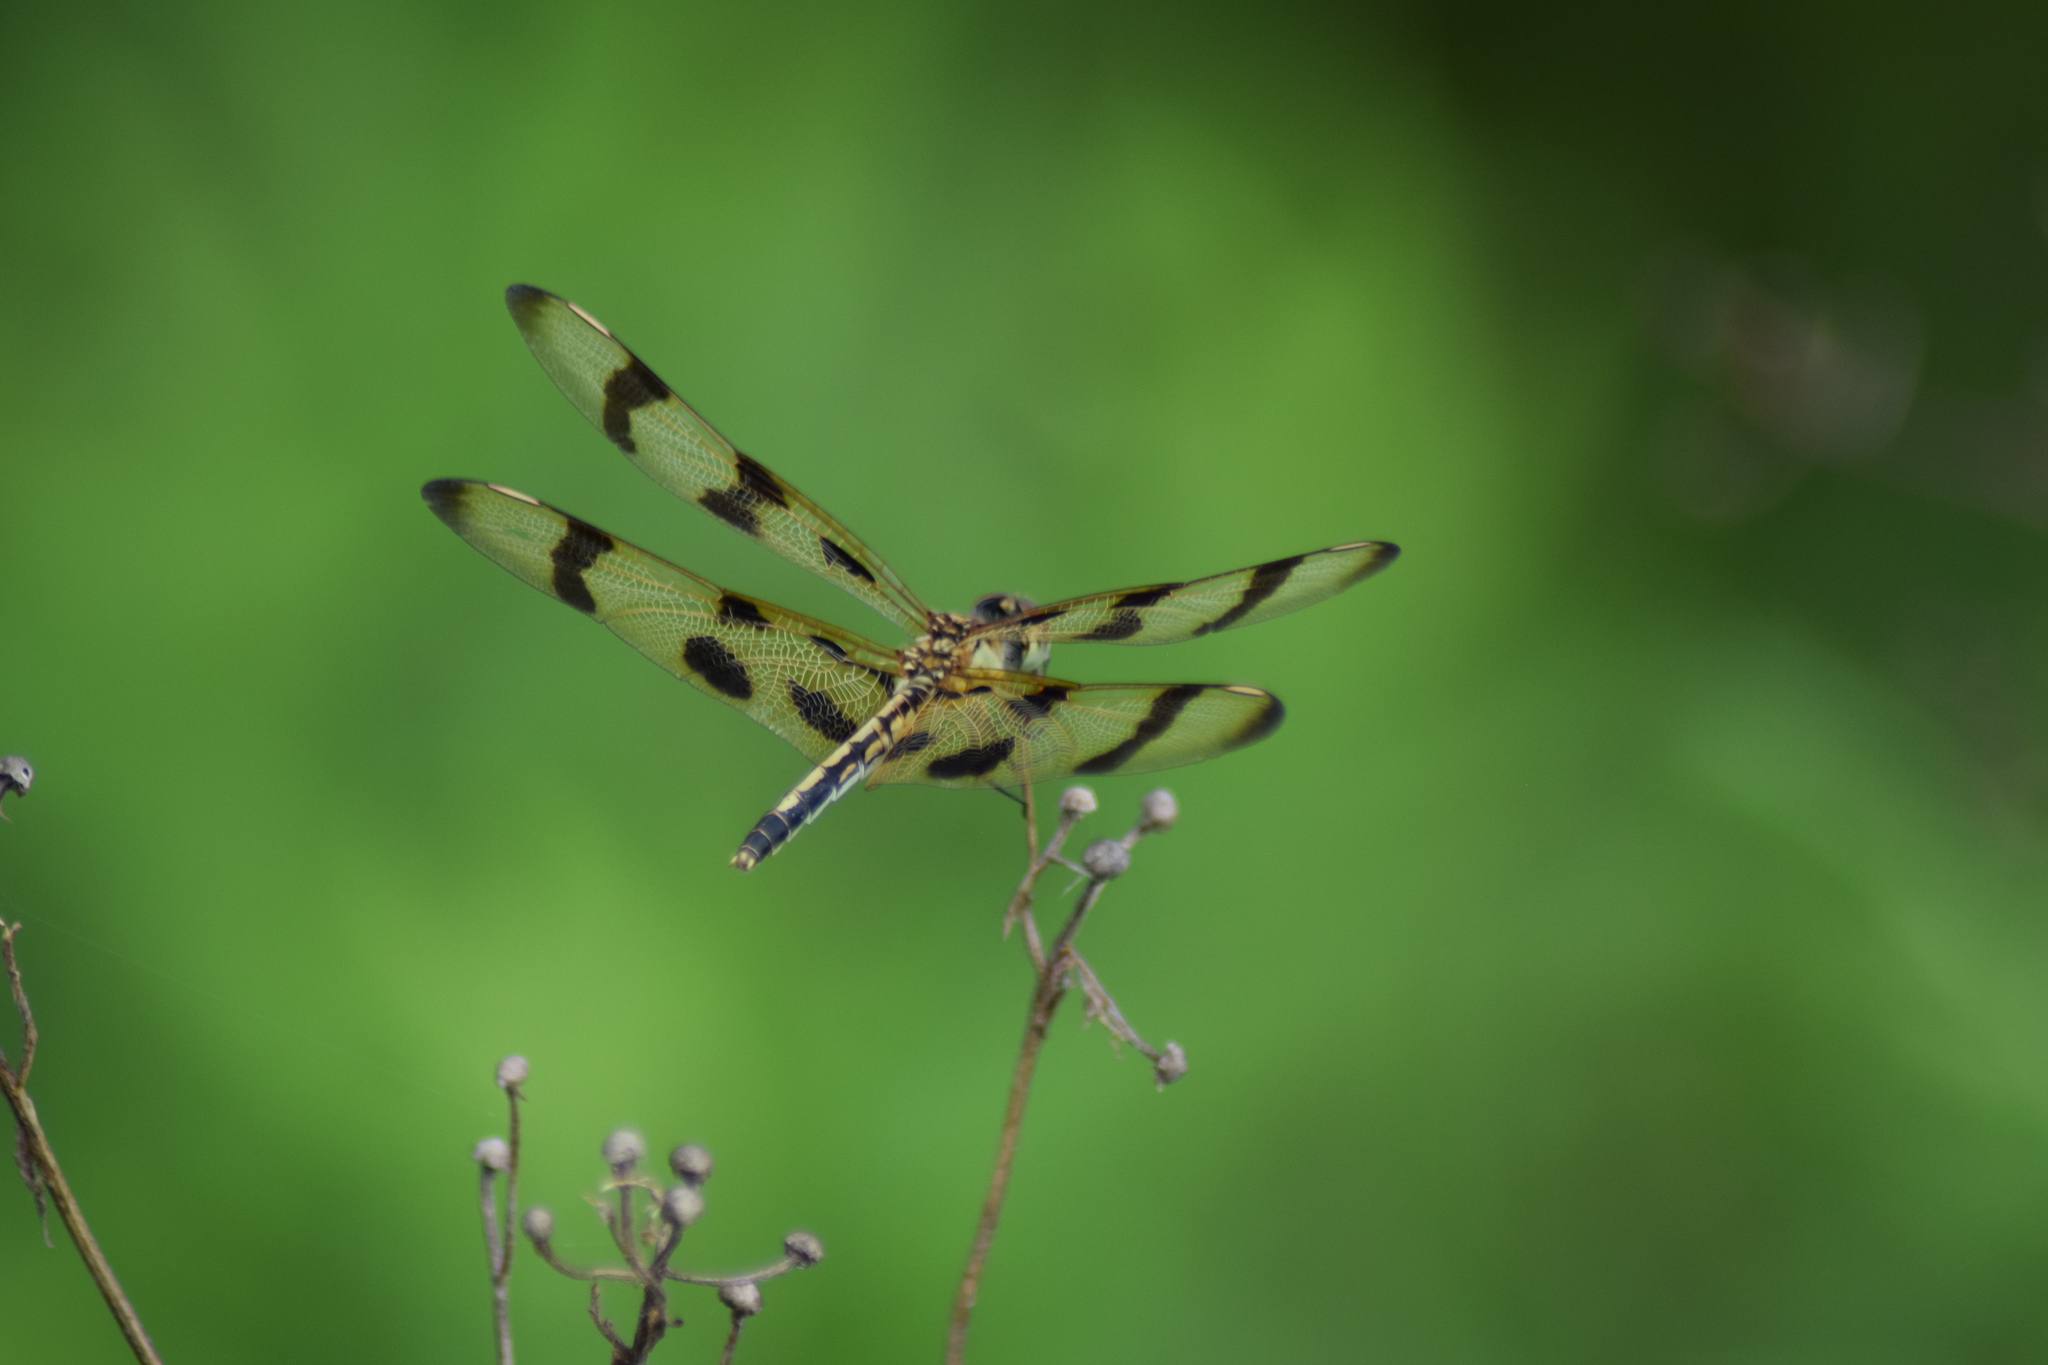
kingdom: Animalia
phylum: Arthropoda
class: Insecta
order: Odonata
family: Libellulidae
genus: Celithemis
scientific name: Celithemis eponina
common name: Halloween pennant
